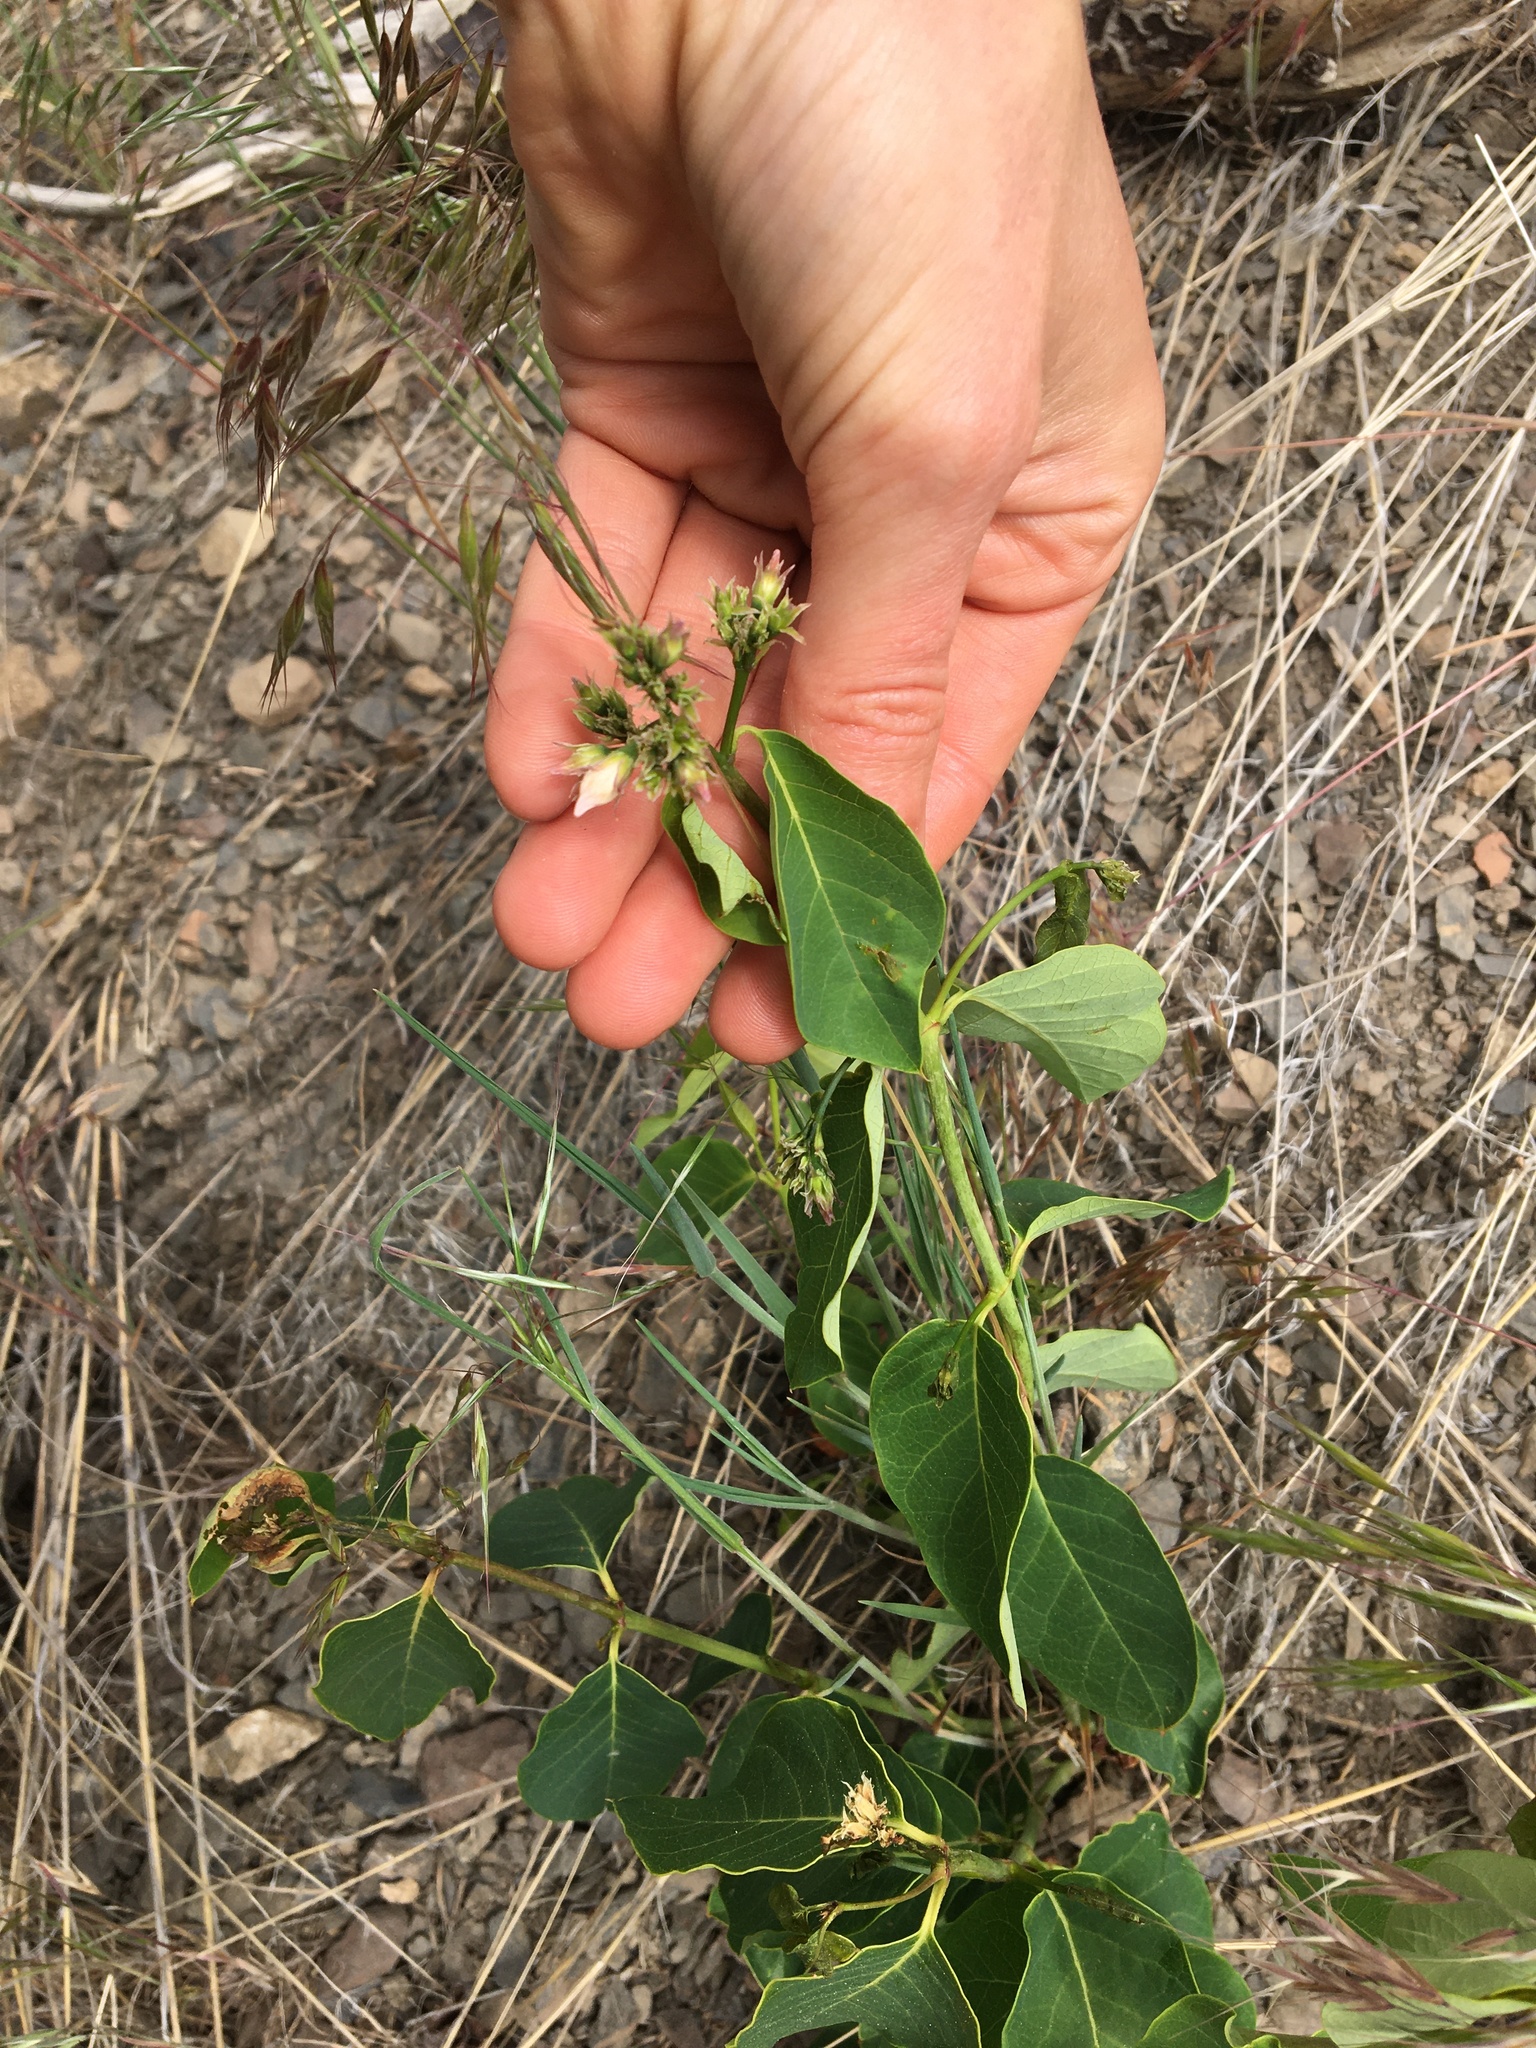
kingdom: Plantae
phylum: Tracheophyta
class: Magnoliopsida
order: Gentianales
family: Apocynaceae
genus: Apocynum
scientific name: Apocynum androsaemifolium
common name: Spreading dogbane
